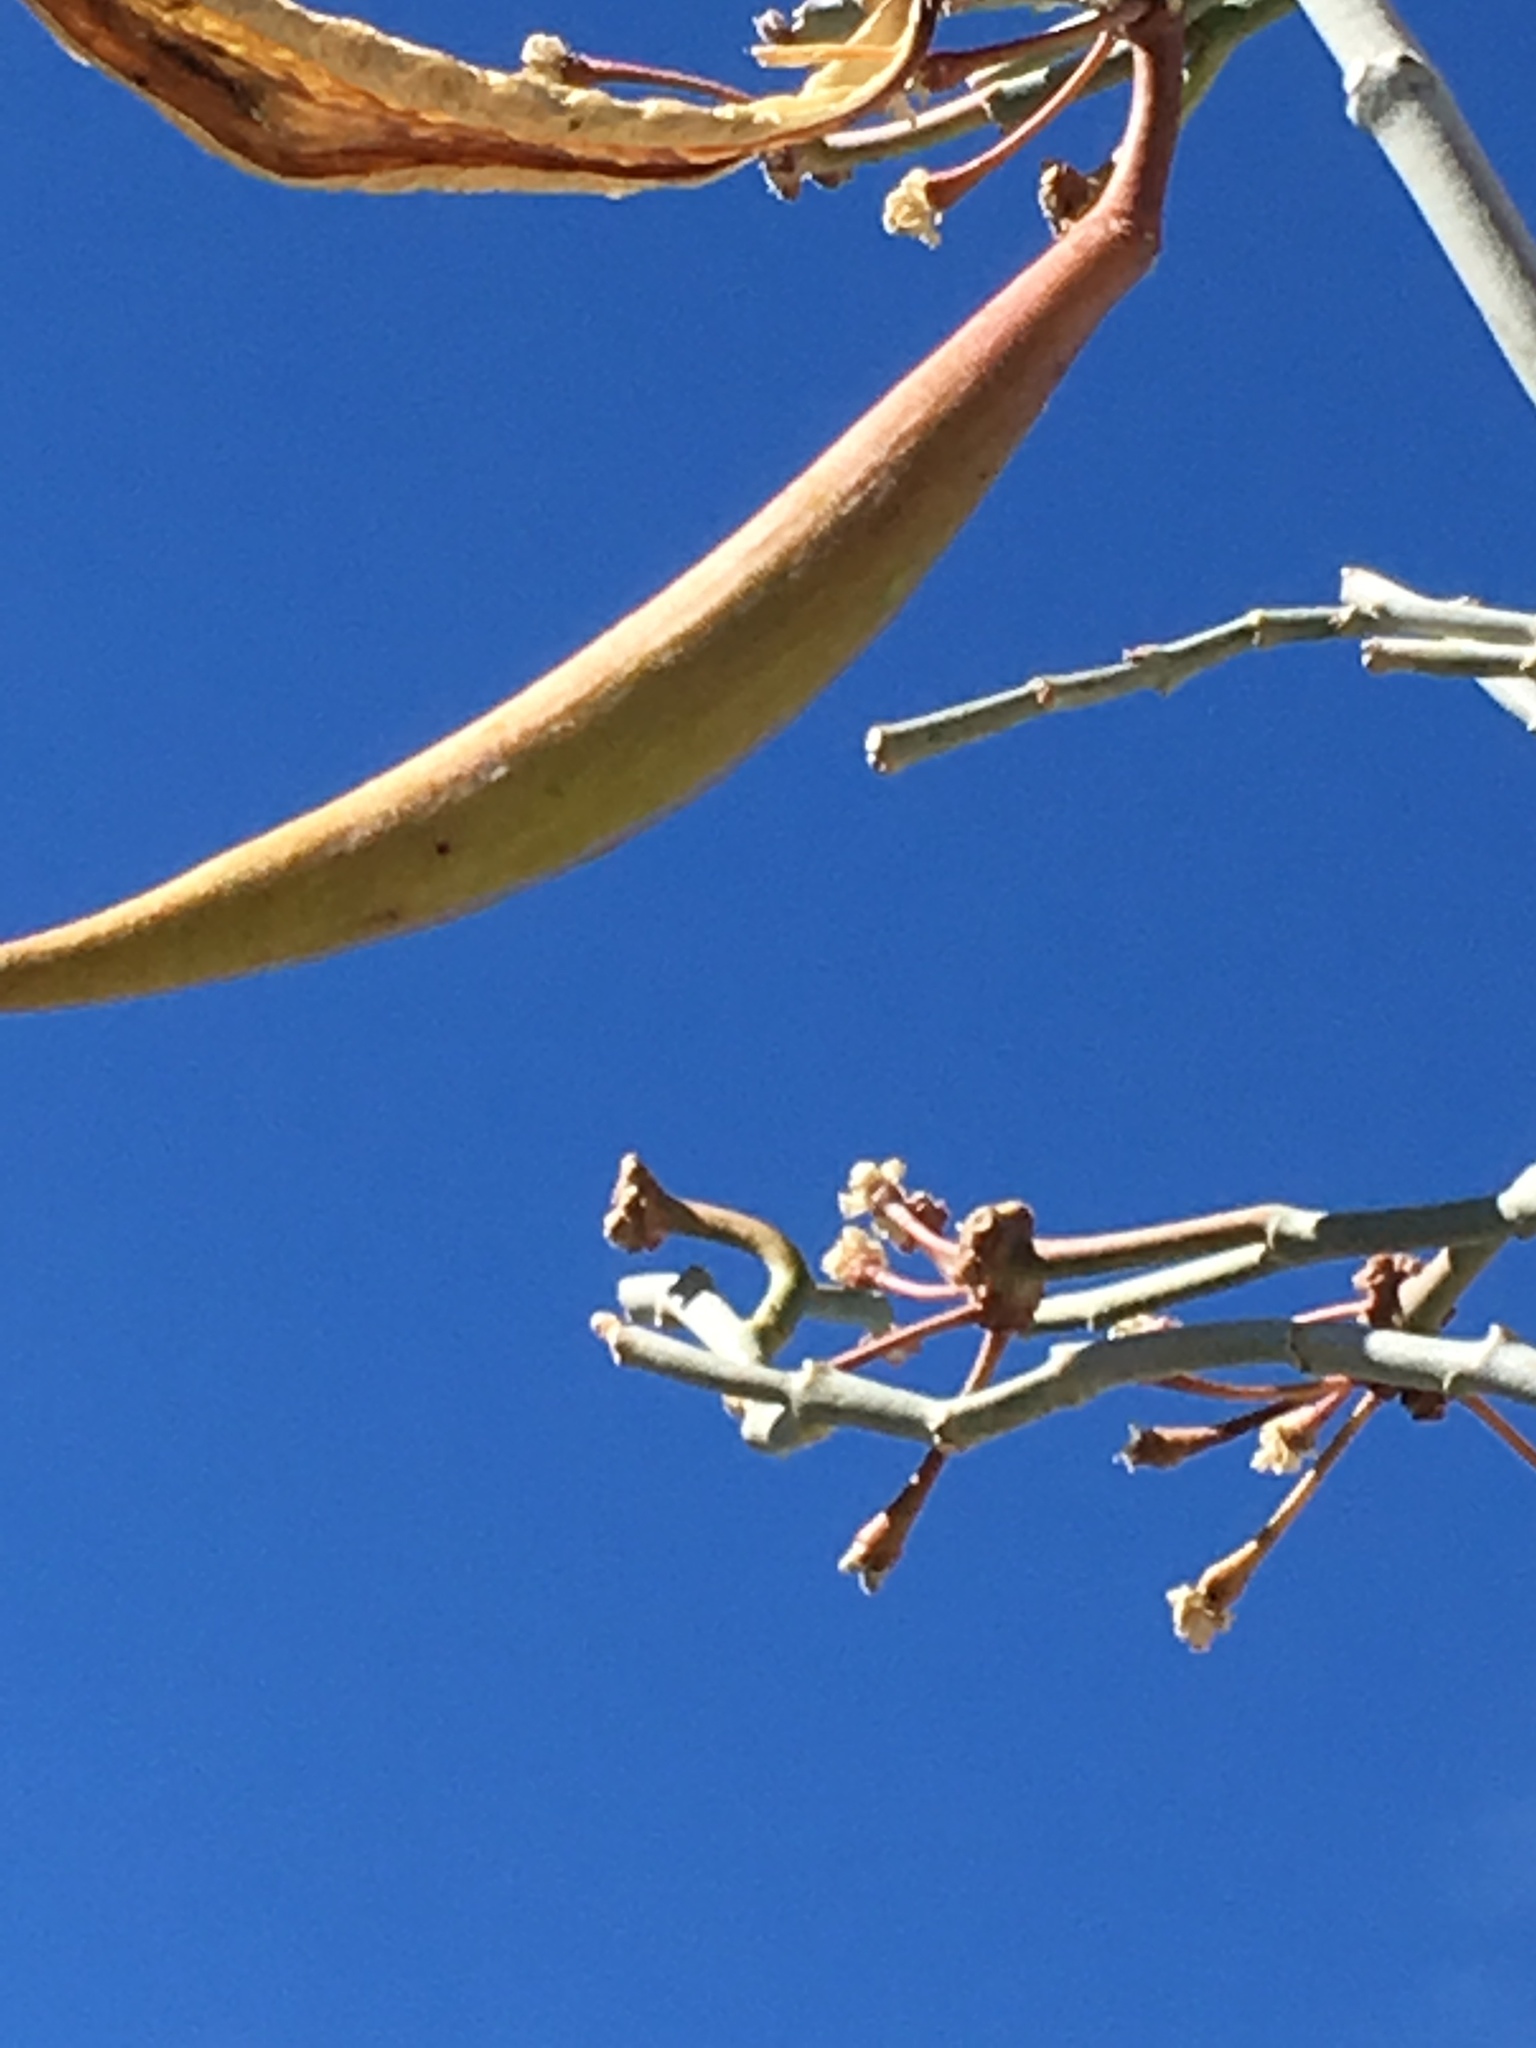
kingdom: Plantae
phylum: Tracheophyta
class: Magnoliopsida
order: Gentianales
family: Apocynaceae
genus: Asclepias
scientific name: Asclepias albicans
